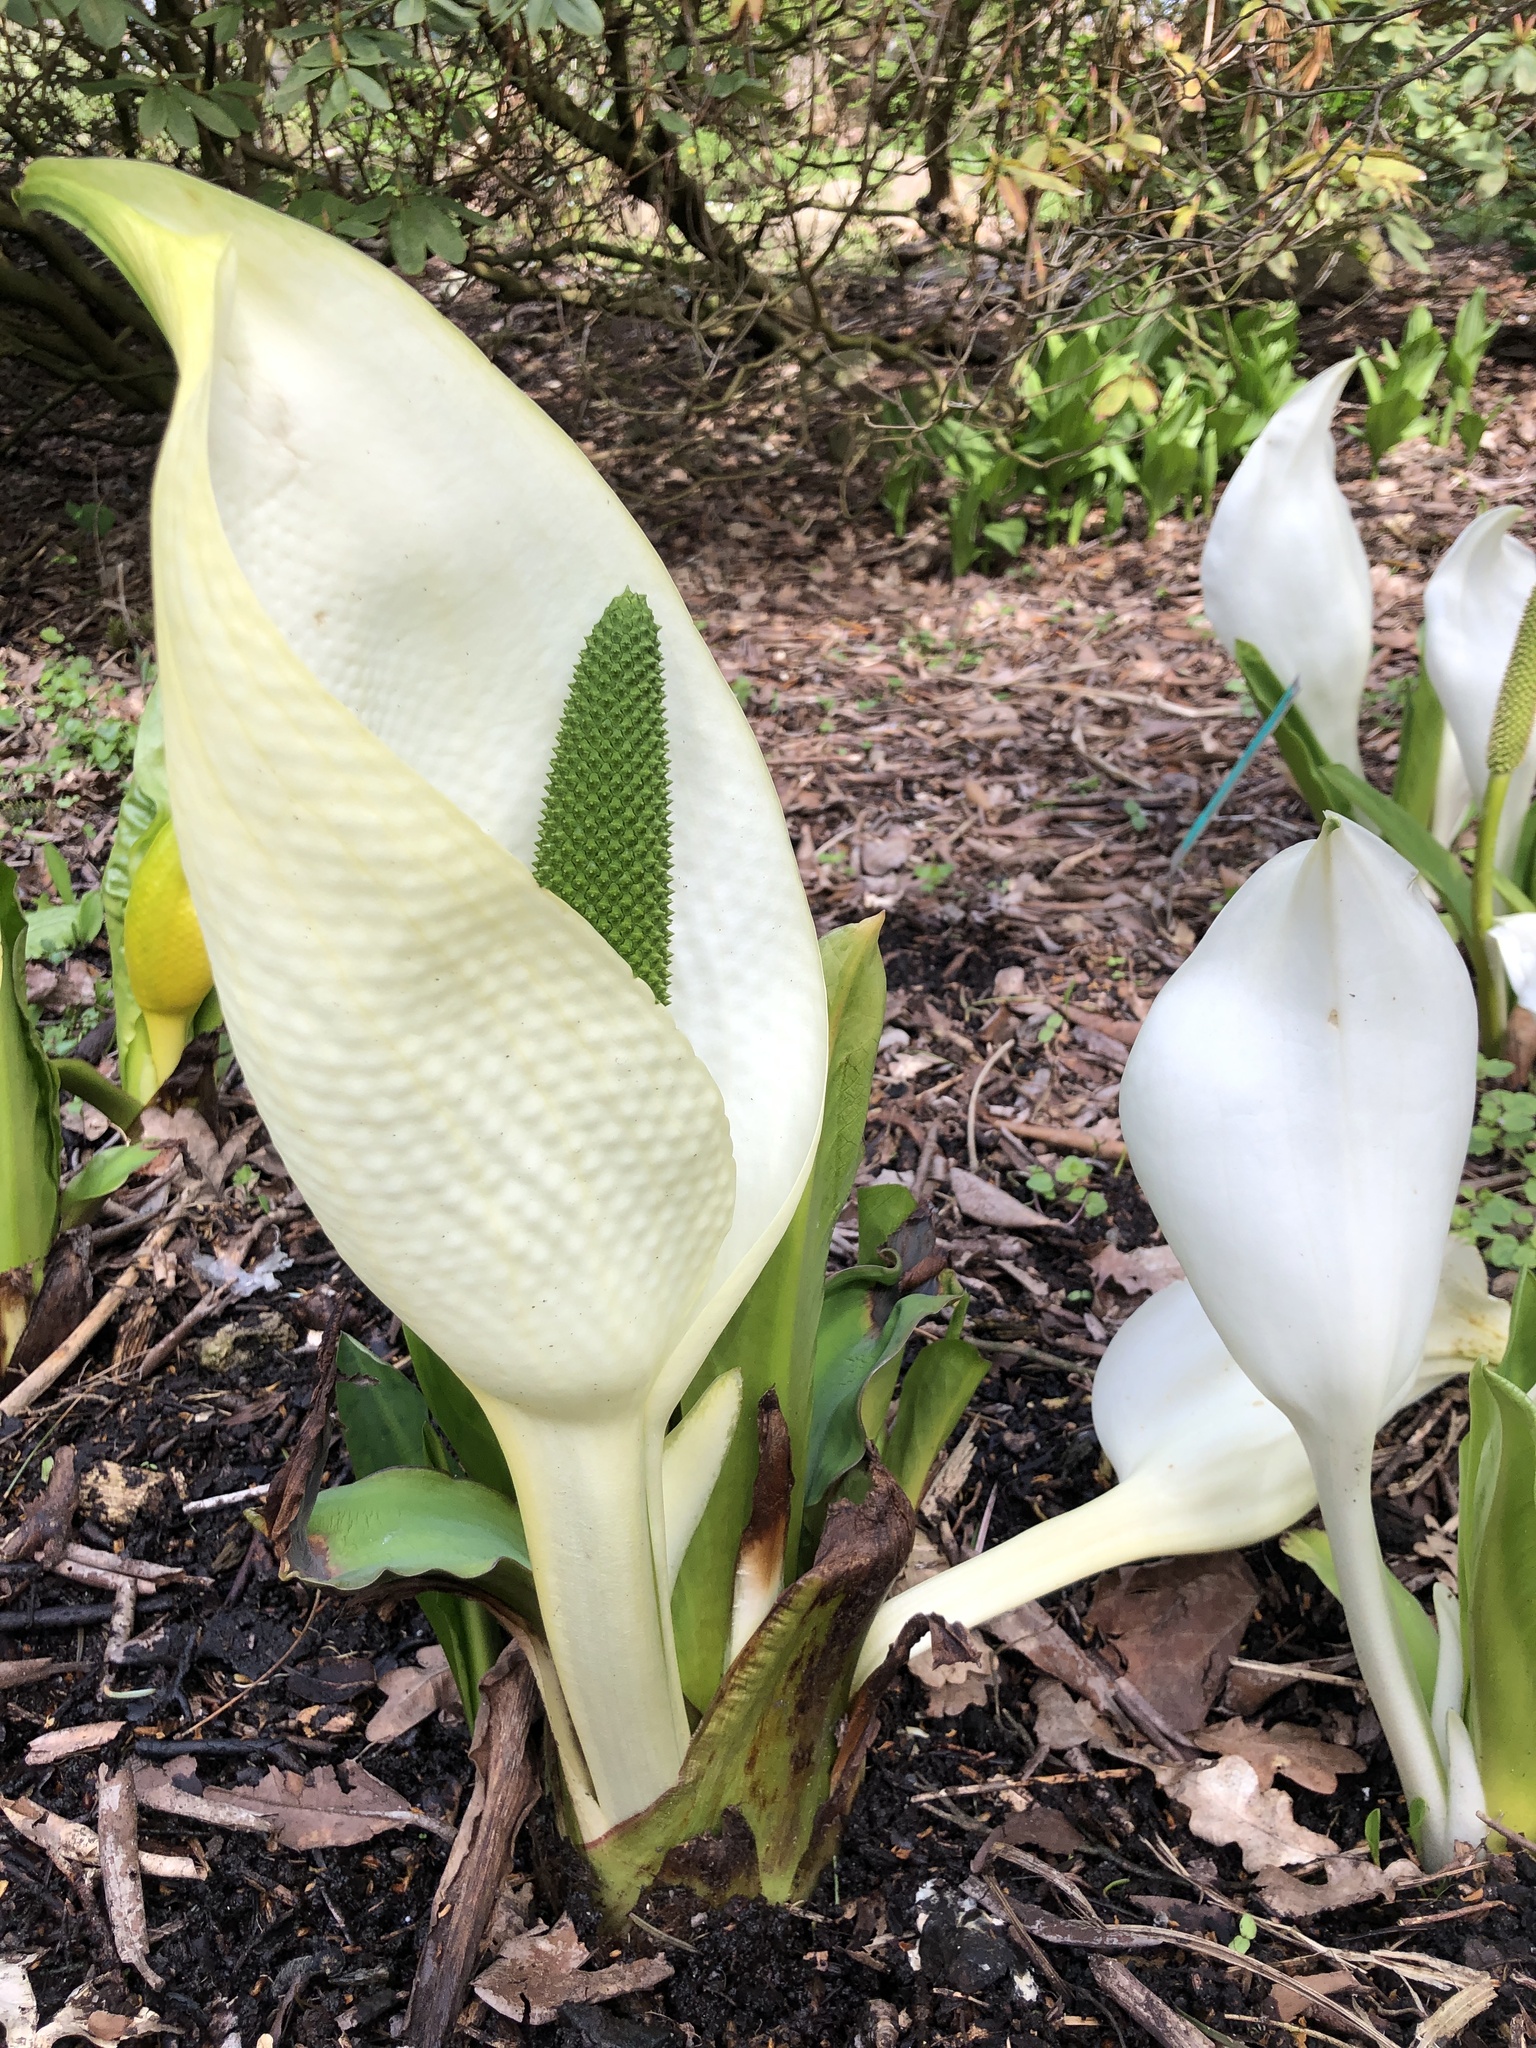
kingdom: Plantae
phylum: Tracheophyta
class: Liliopsida
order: Alismatales
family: Araceae
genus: Lysichiton
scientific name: Lysichiton camtschatcensis
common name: Asian skunk-cabbage
